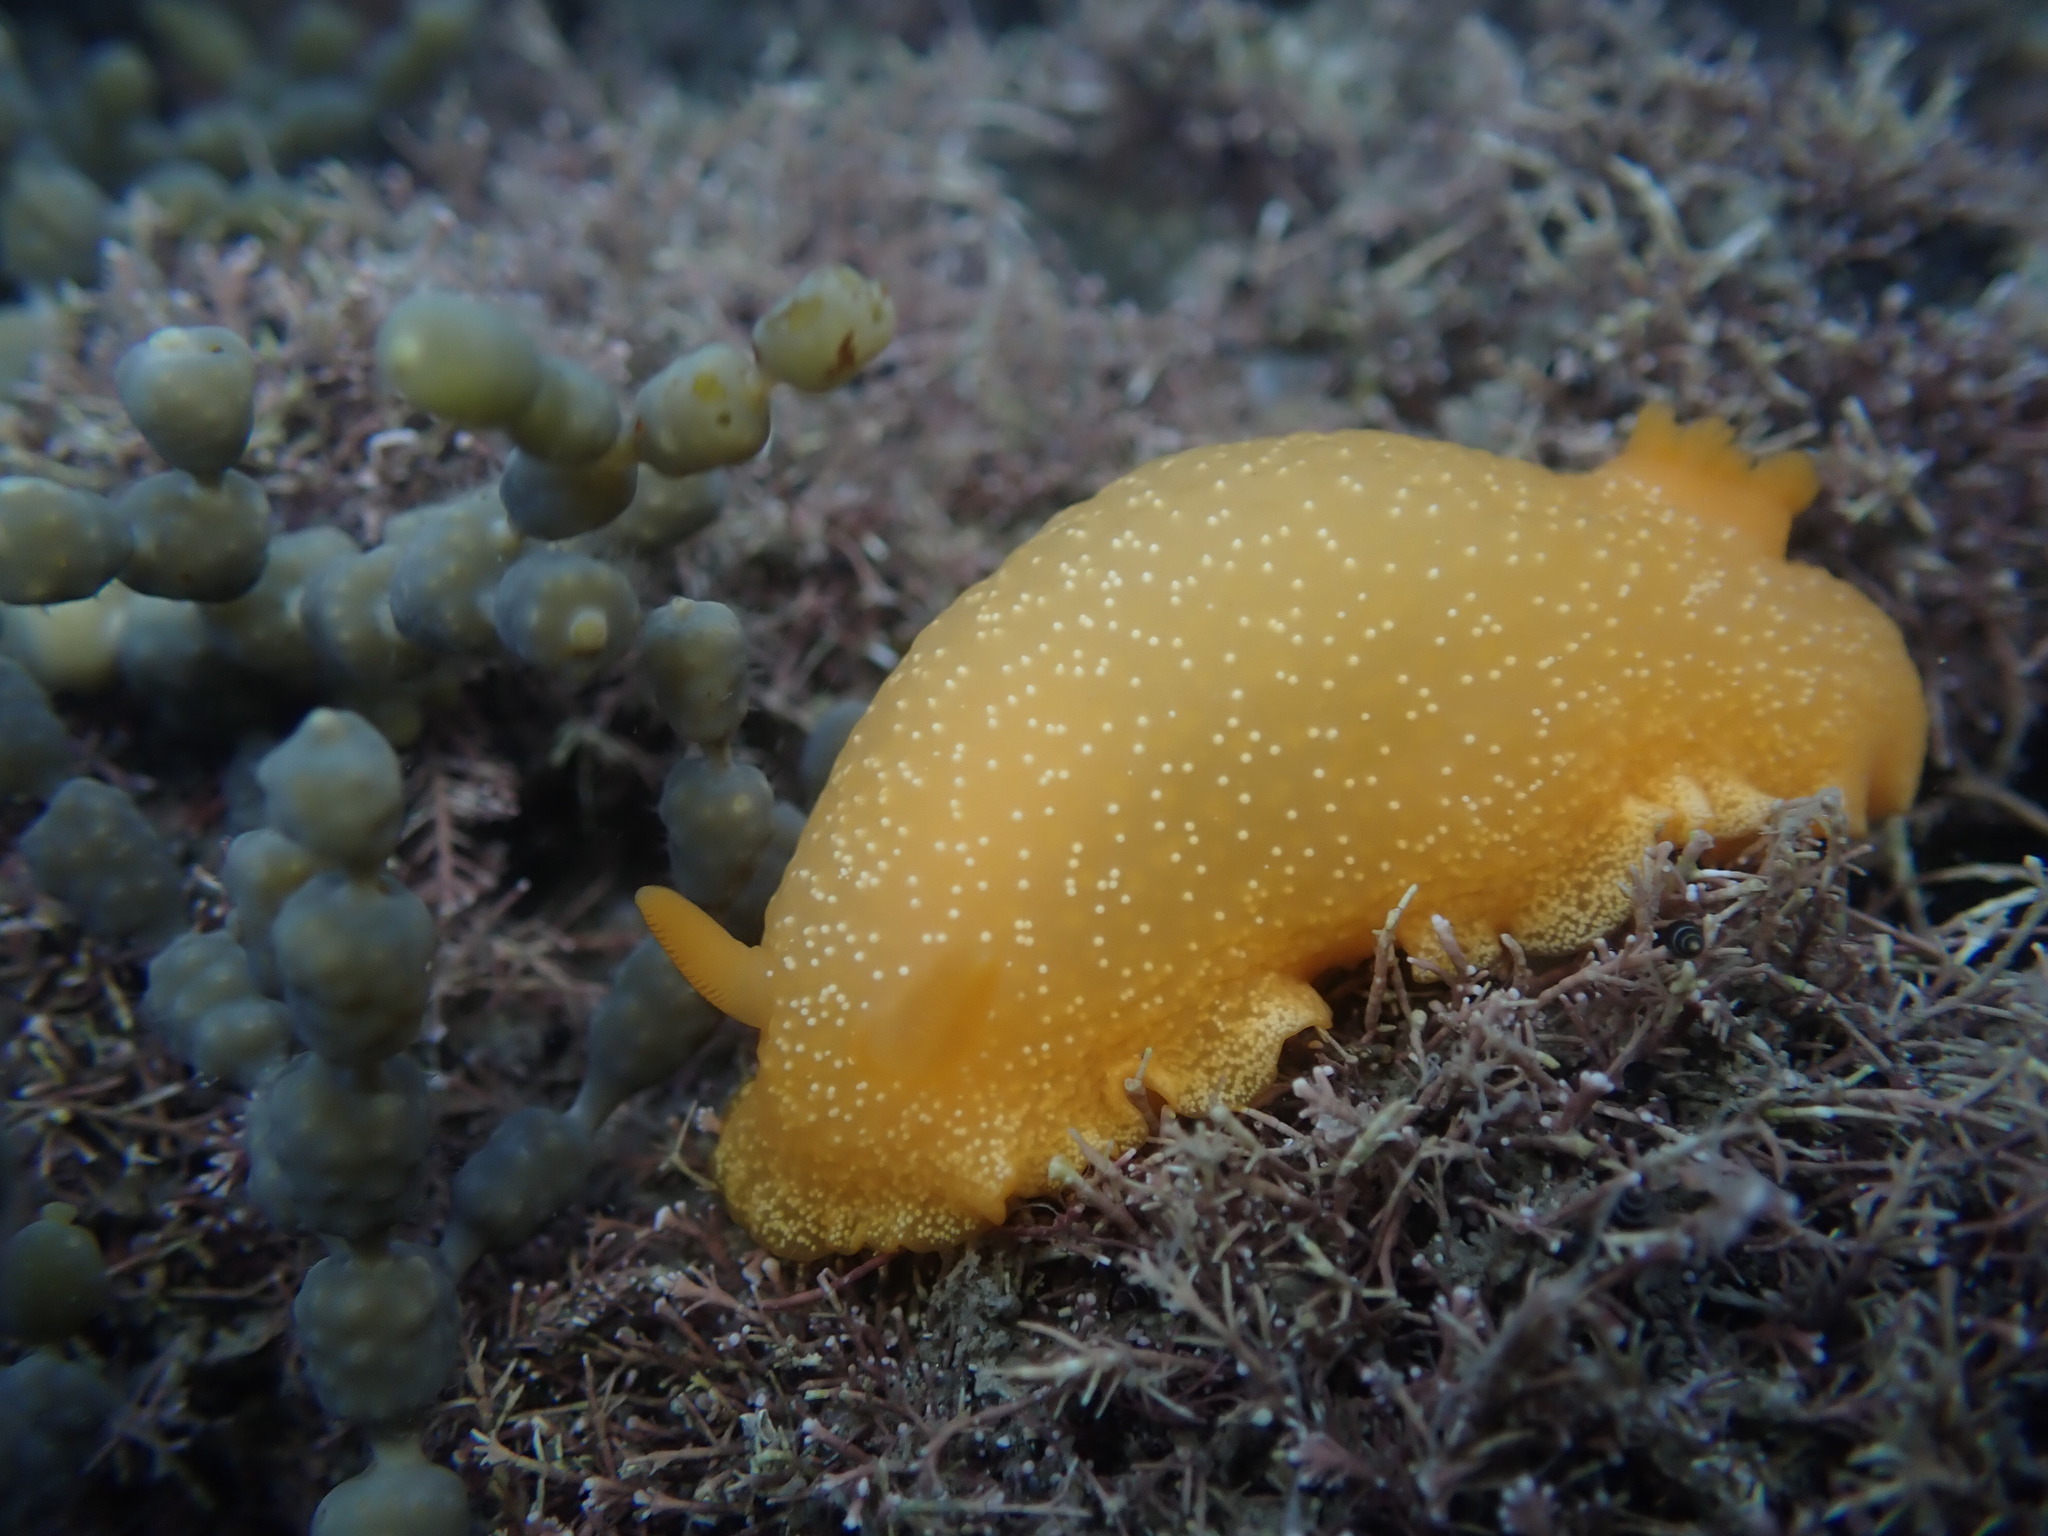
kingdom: Animalia
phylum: Mollusca
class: Gastropoda
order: Nudibranchia
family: Dendrodorididae
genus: Dendrodoris
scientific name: Dendrodoris citrina
